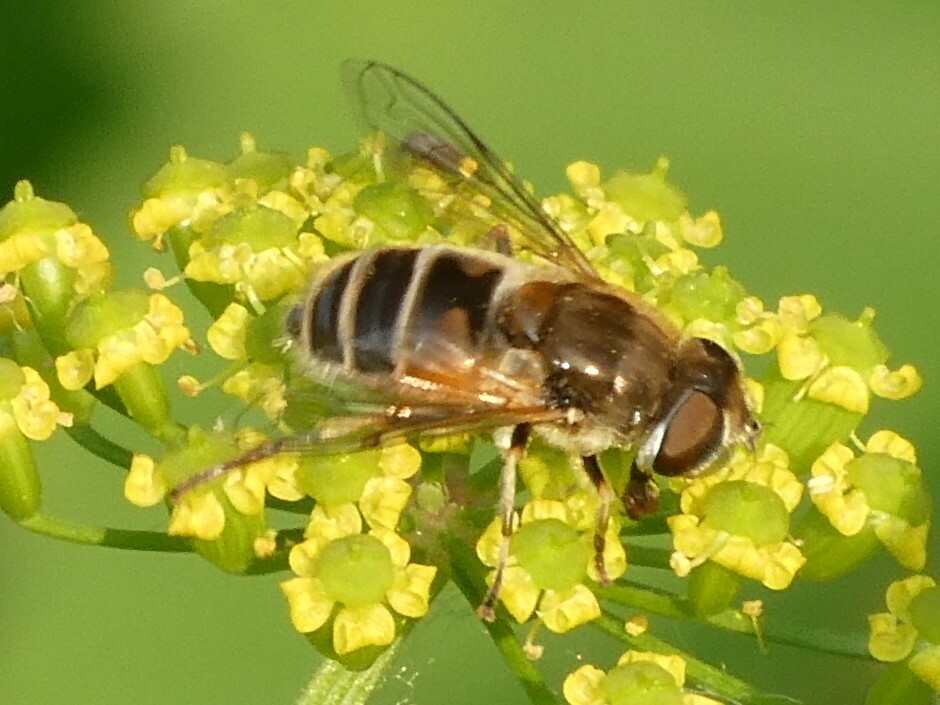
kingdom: Animalia
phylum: Arthropoda
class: Insecta
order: Diptera
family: Syrphidae
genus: Eristalis
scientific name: Eristalis arbustorum
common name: Hover fly
